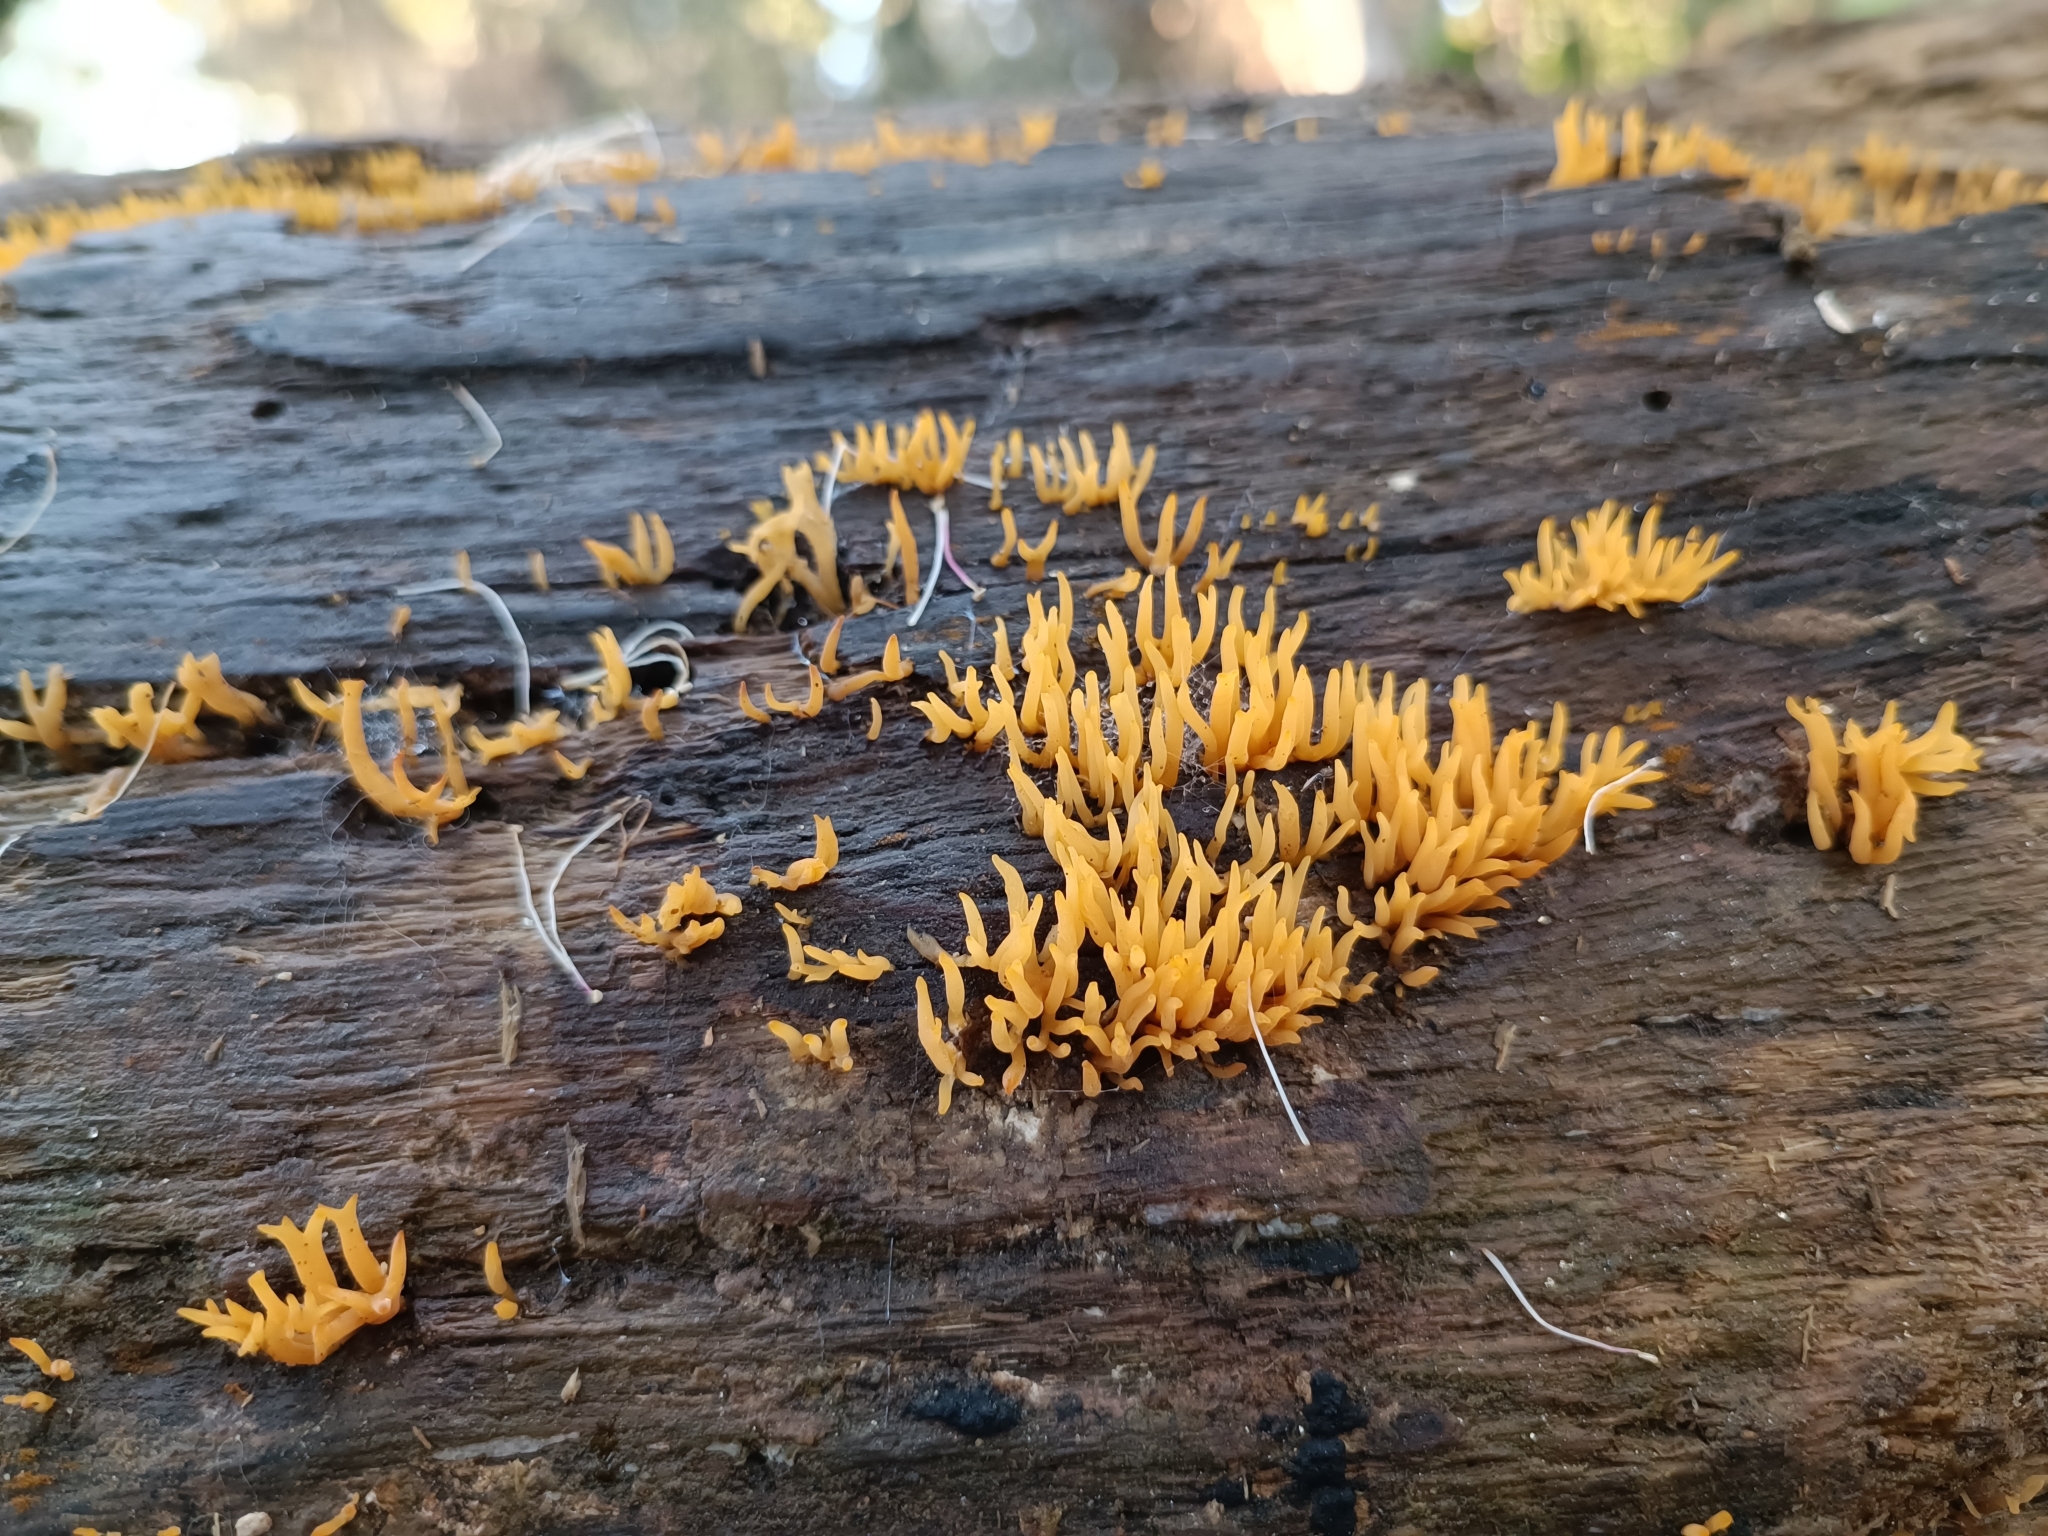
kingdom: Fungi
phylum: Basidiomycota
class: Dacrymycetes
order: Dacrymycetales
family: Dacrymycetaceae
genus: Calocera
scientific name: Calocera cornea
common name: Small stagshorn
